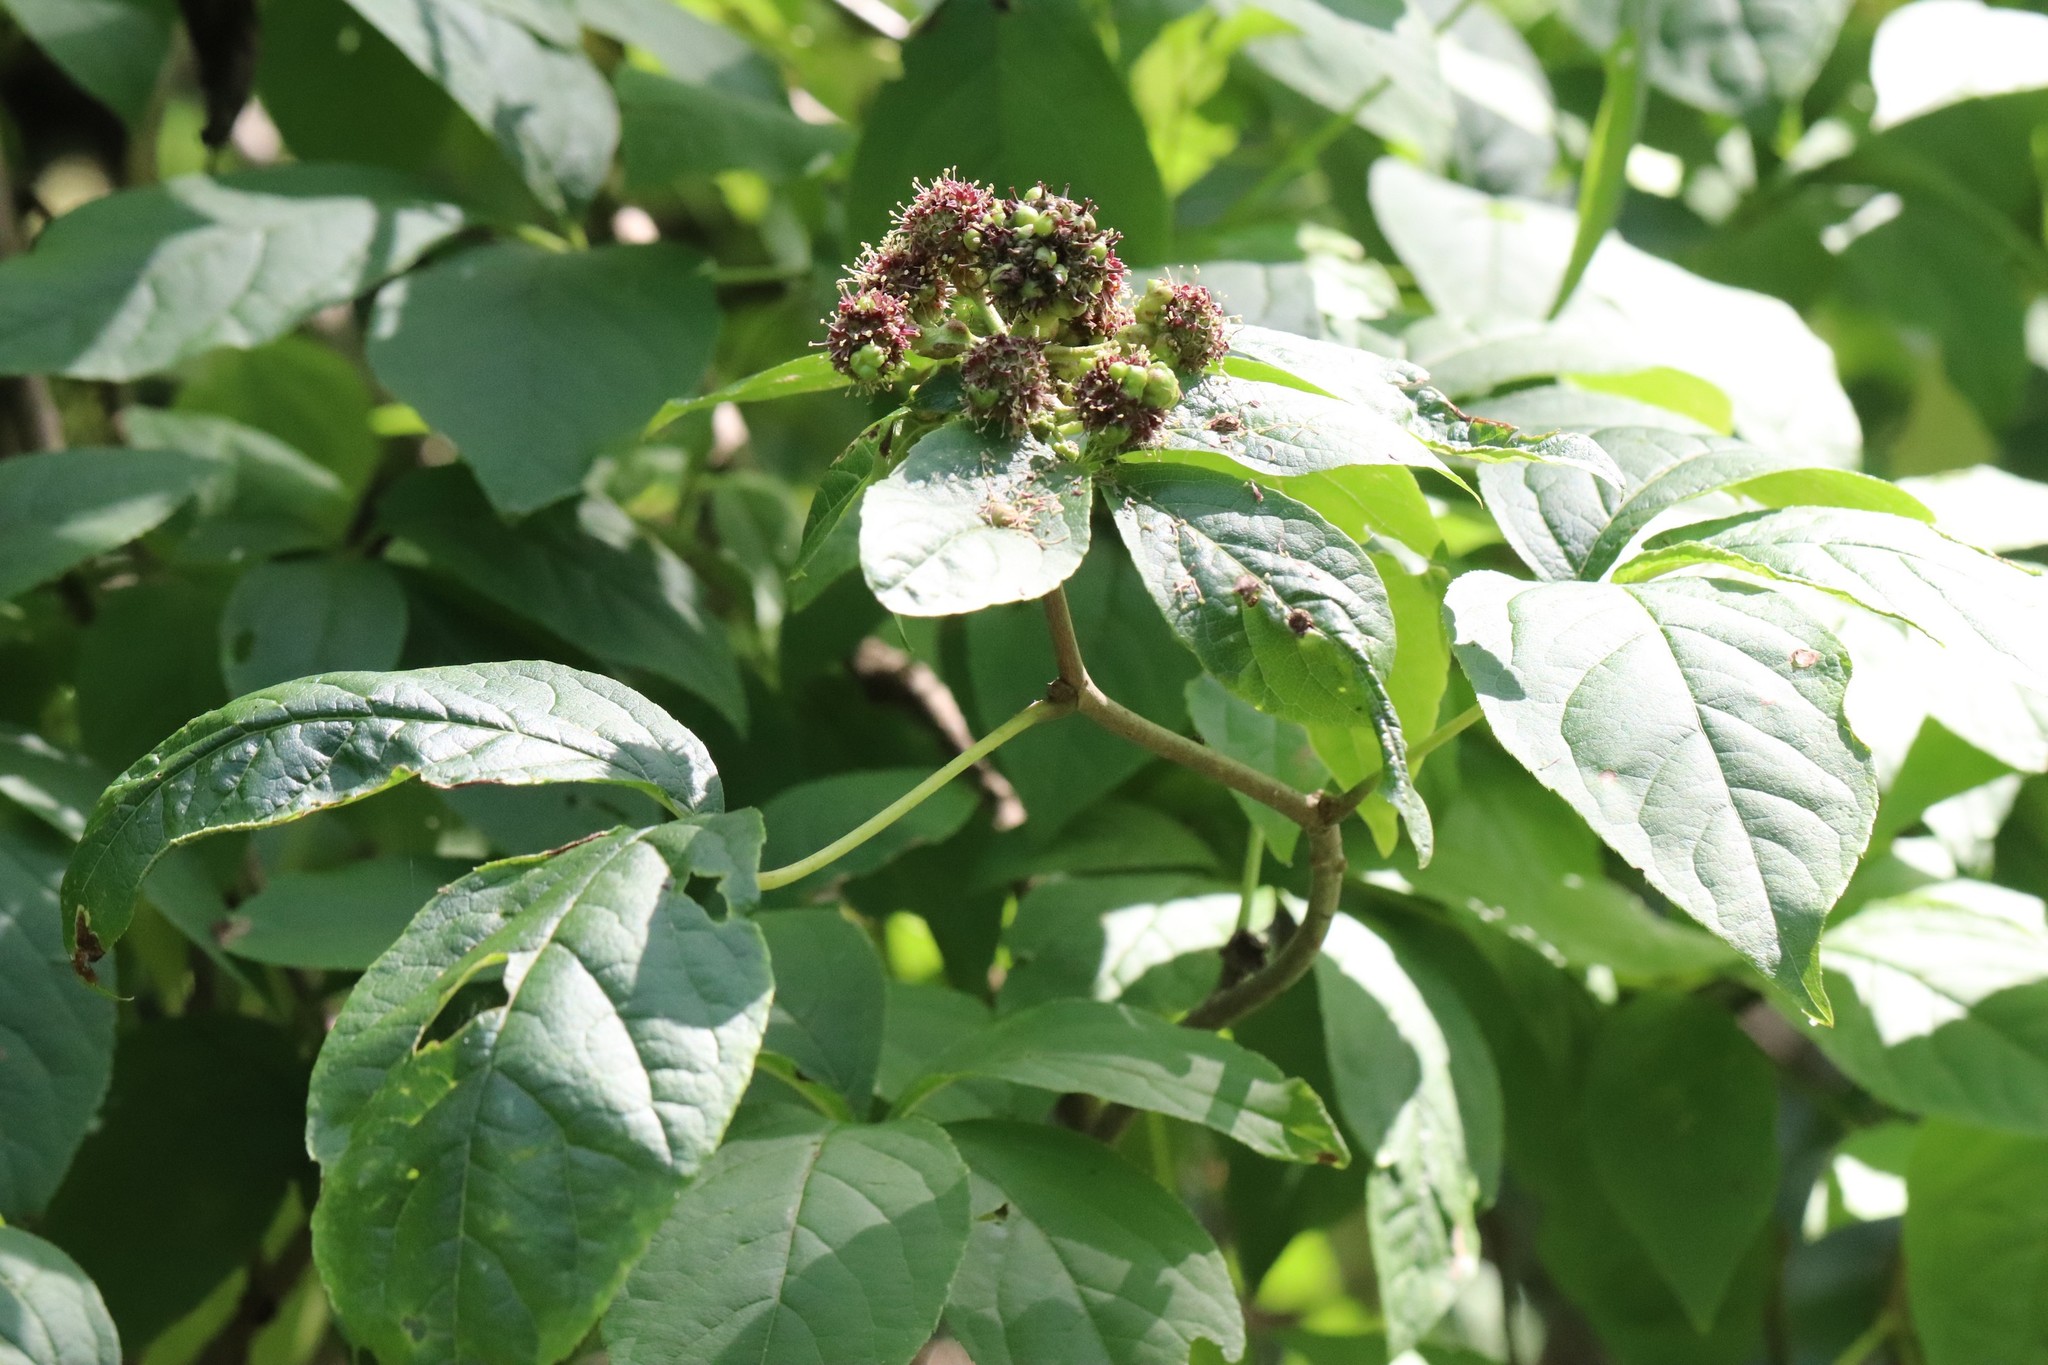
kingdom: Plantae
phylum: Tracheophyta
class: Magnoliopsida
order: Apiales
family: Araliaceae
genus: Eleutherococcus
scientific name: Eleutherococcus sessiliflorus
